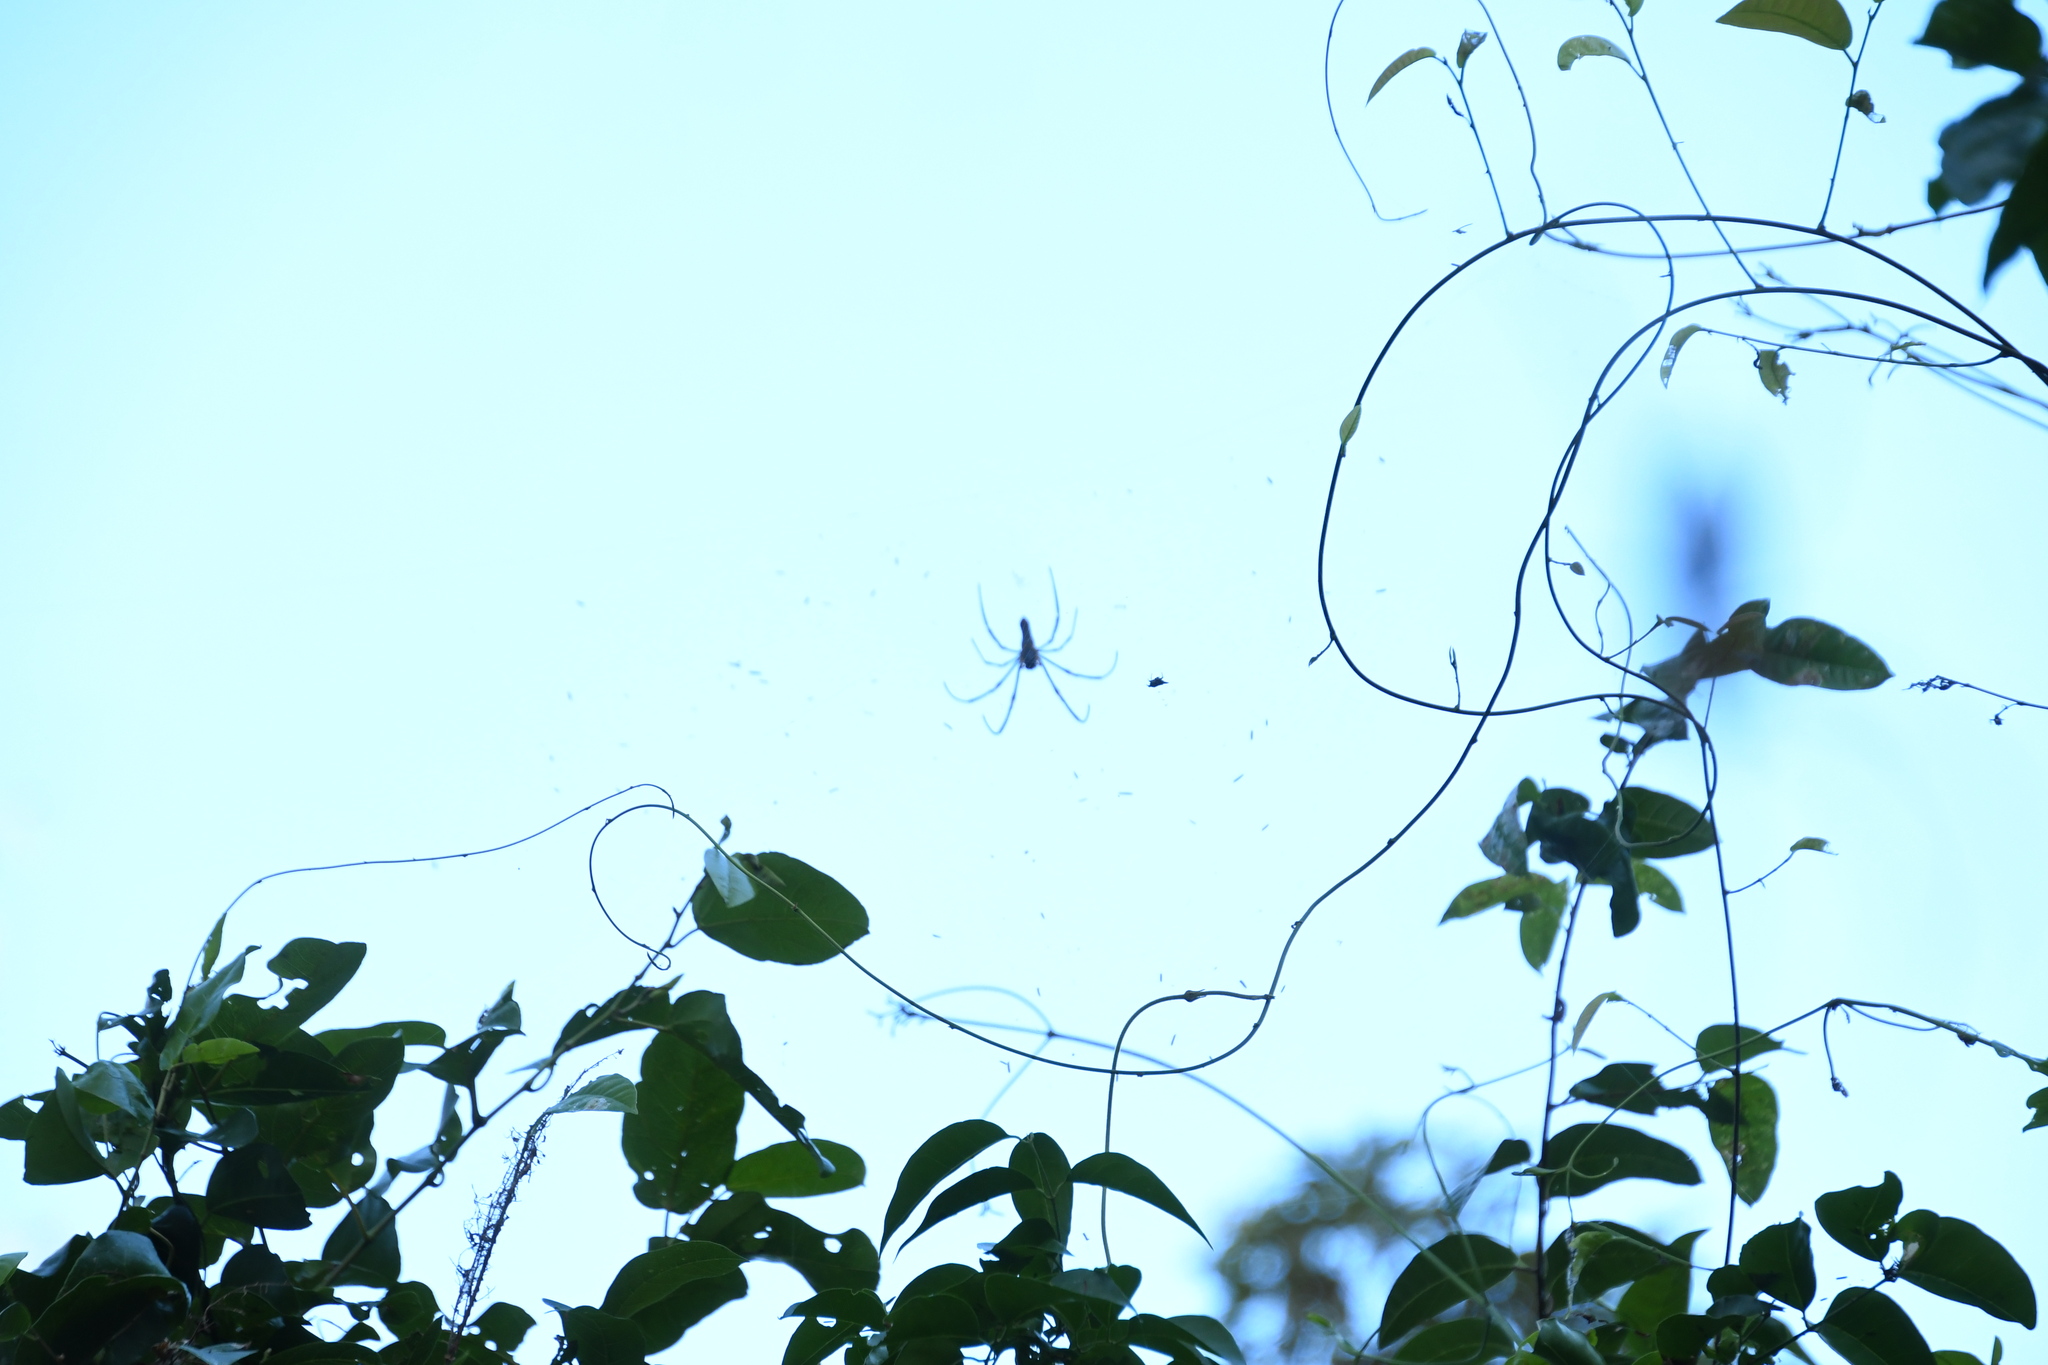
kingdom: Animalia
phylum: Arthropoda
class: Arachnida
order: Araneae
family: Araneidae
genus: Nephila
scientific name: Nephila pilipes
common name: Giant golden orb weaver
